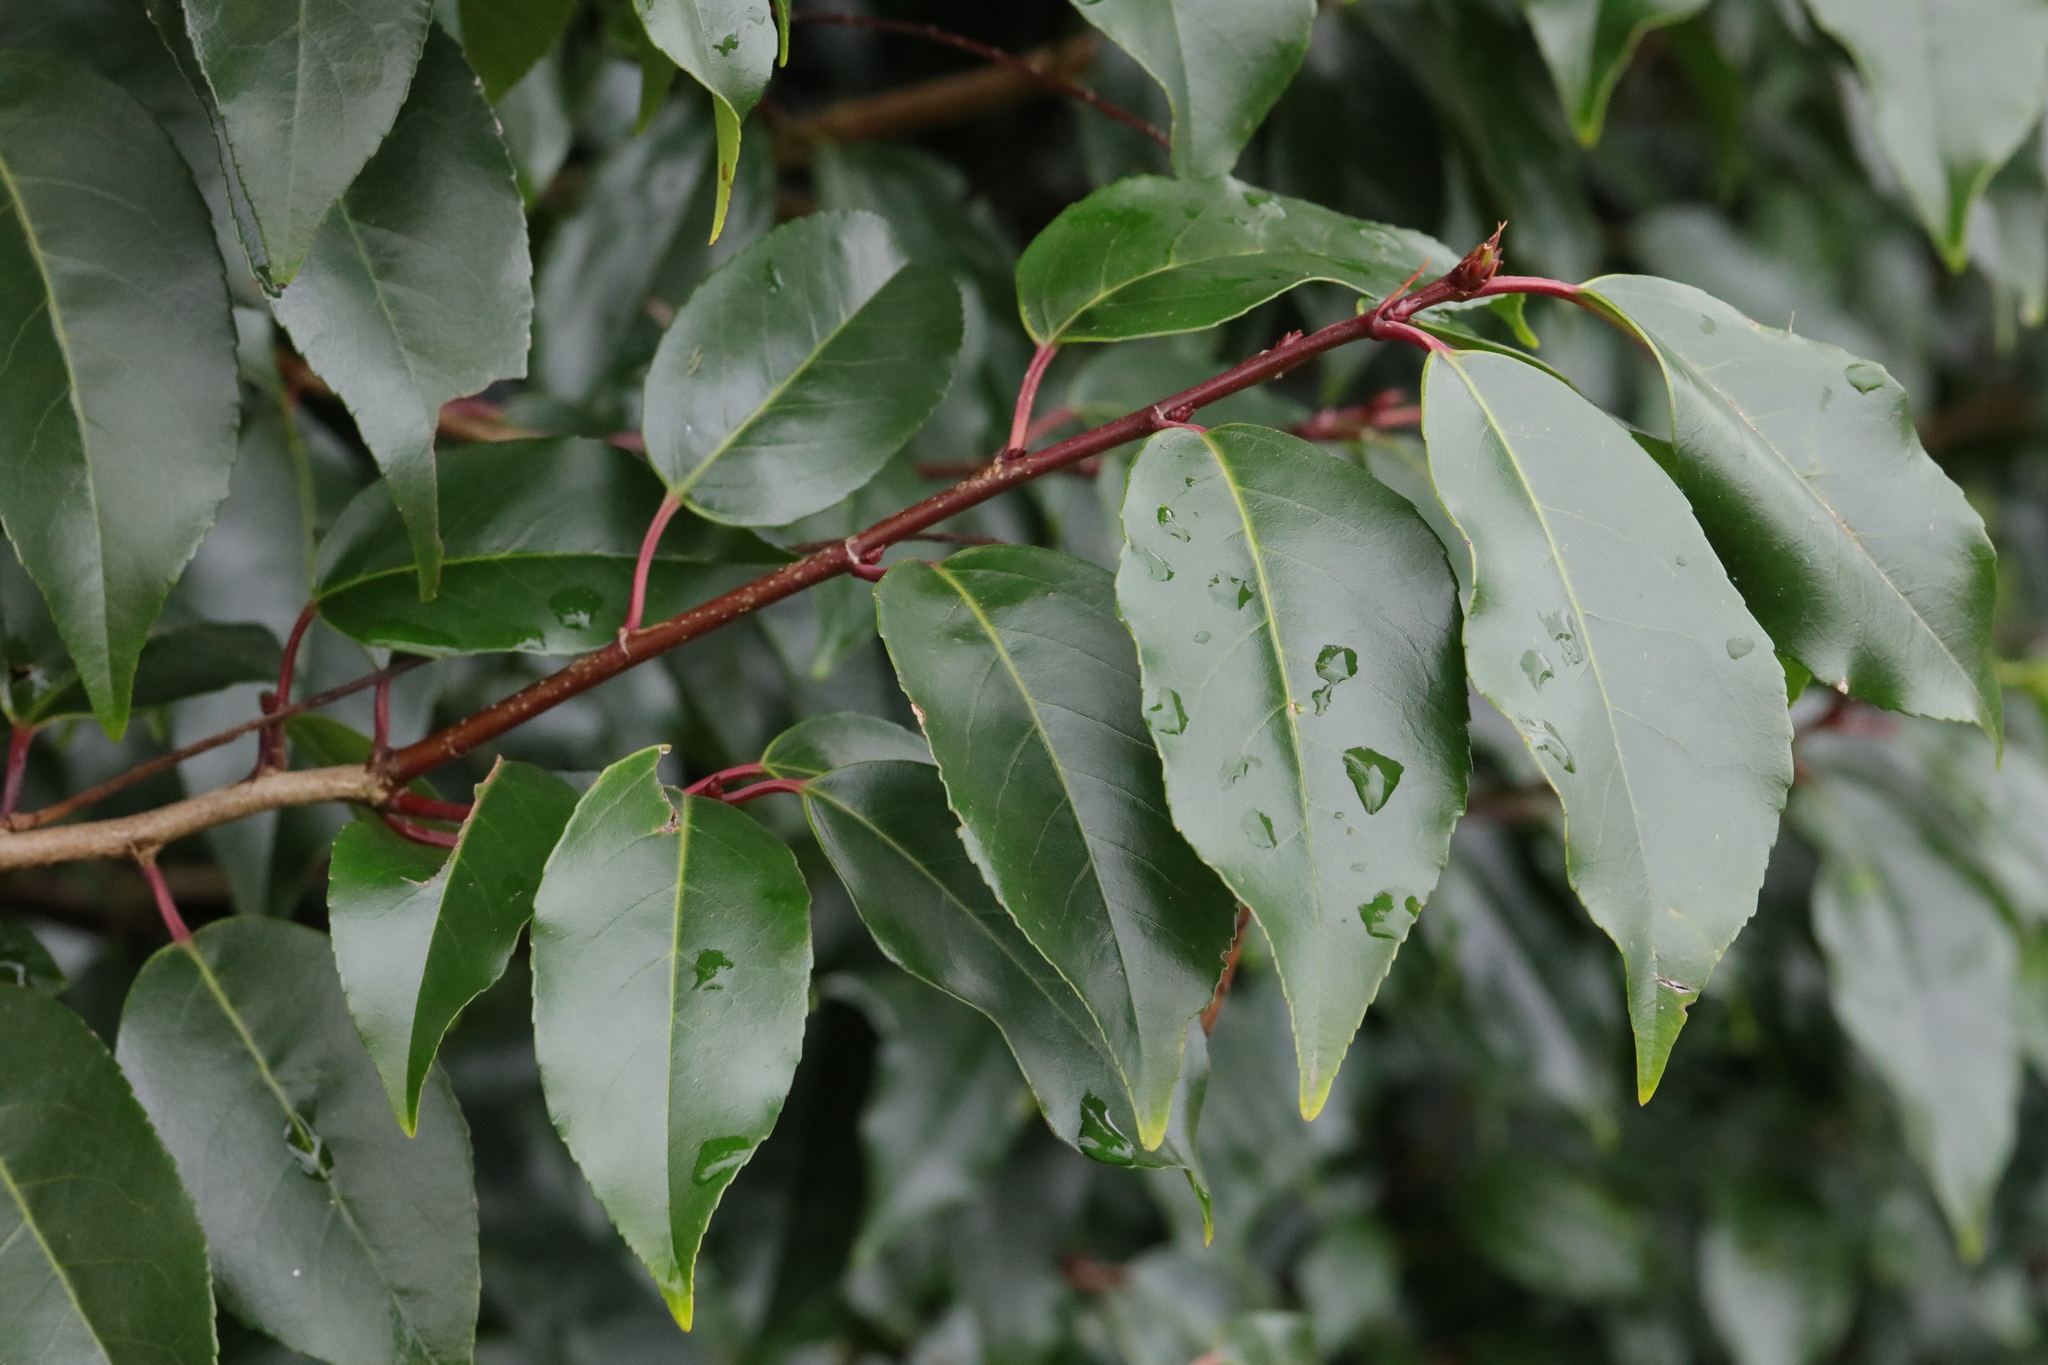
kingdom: Plantae
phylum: Tracheophyta
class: Magnoliopsida
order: Rosales
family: Rosaceae
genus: Prunus
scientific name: Prunus lusitanica
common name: Portugal laurel
